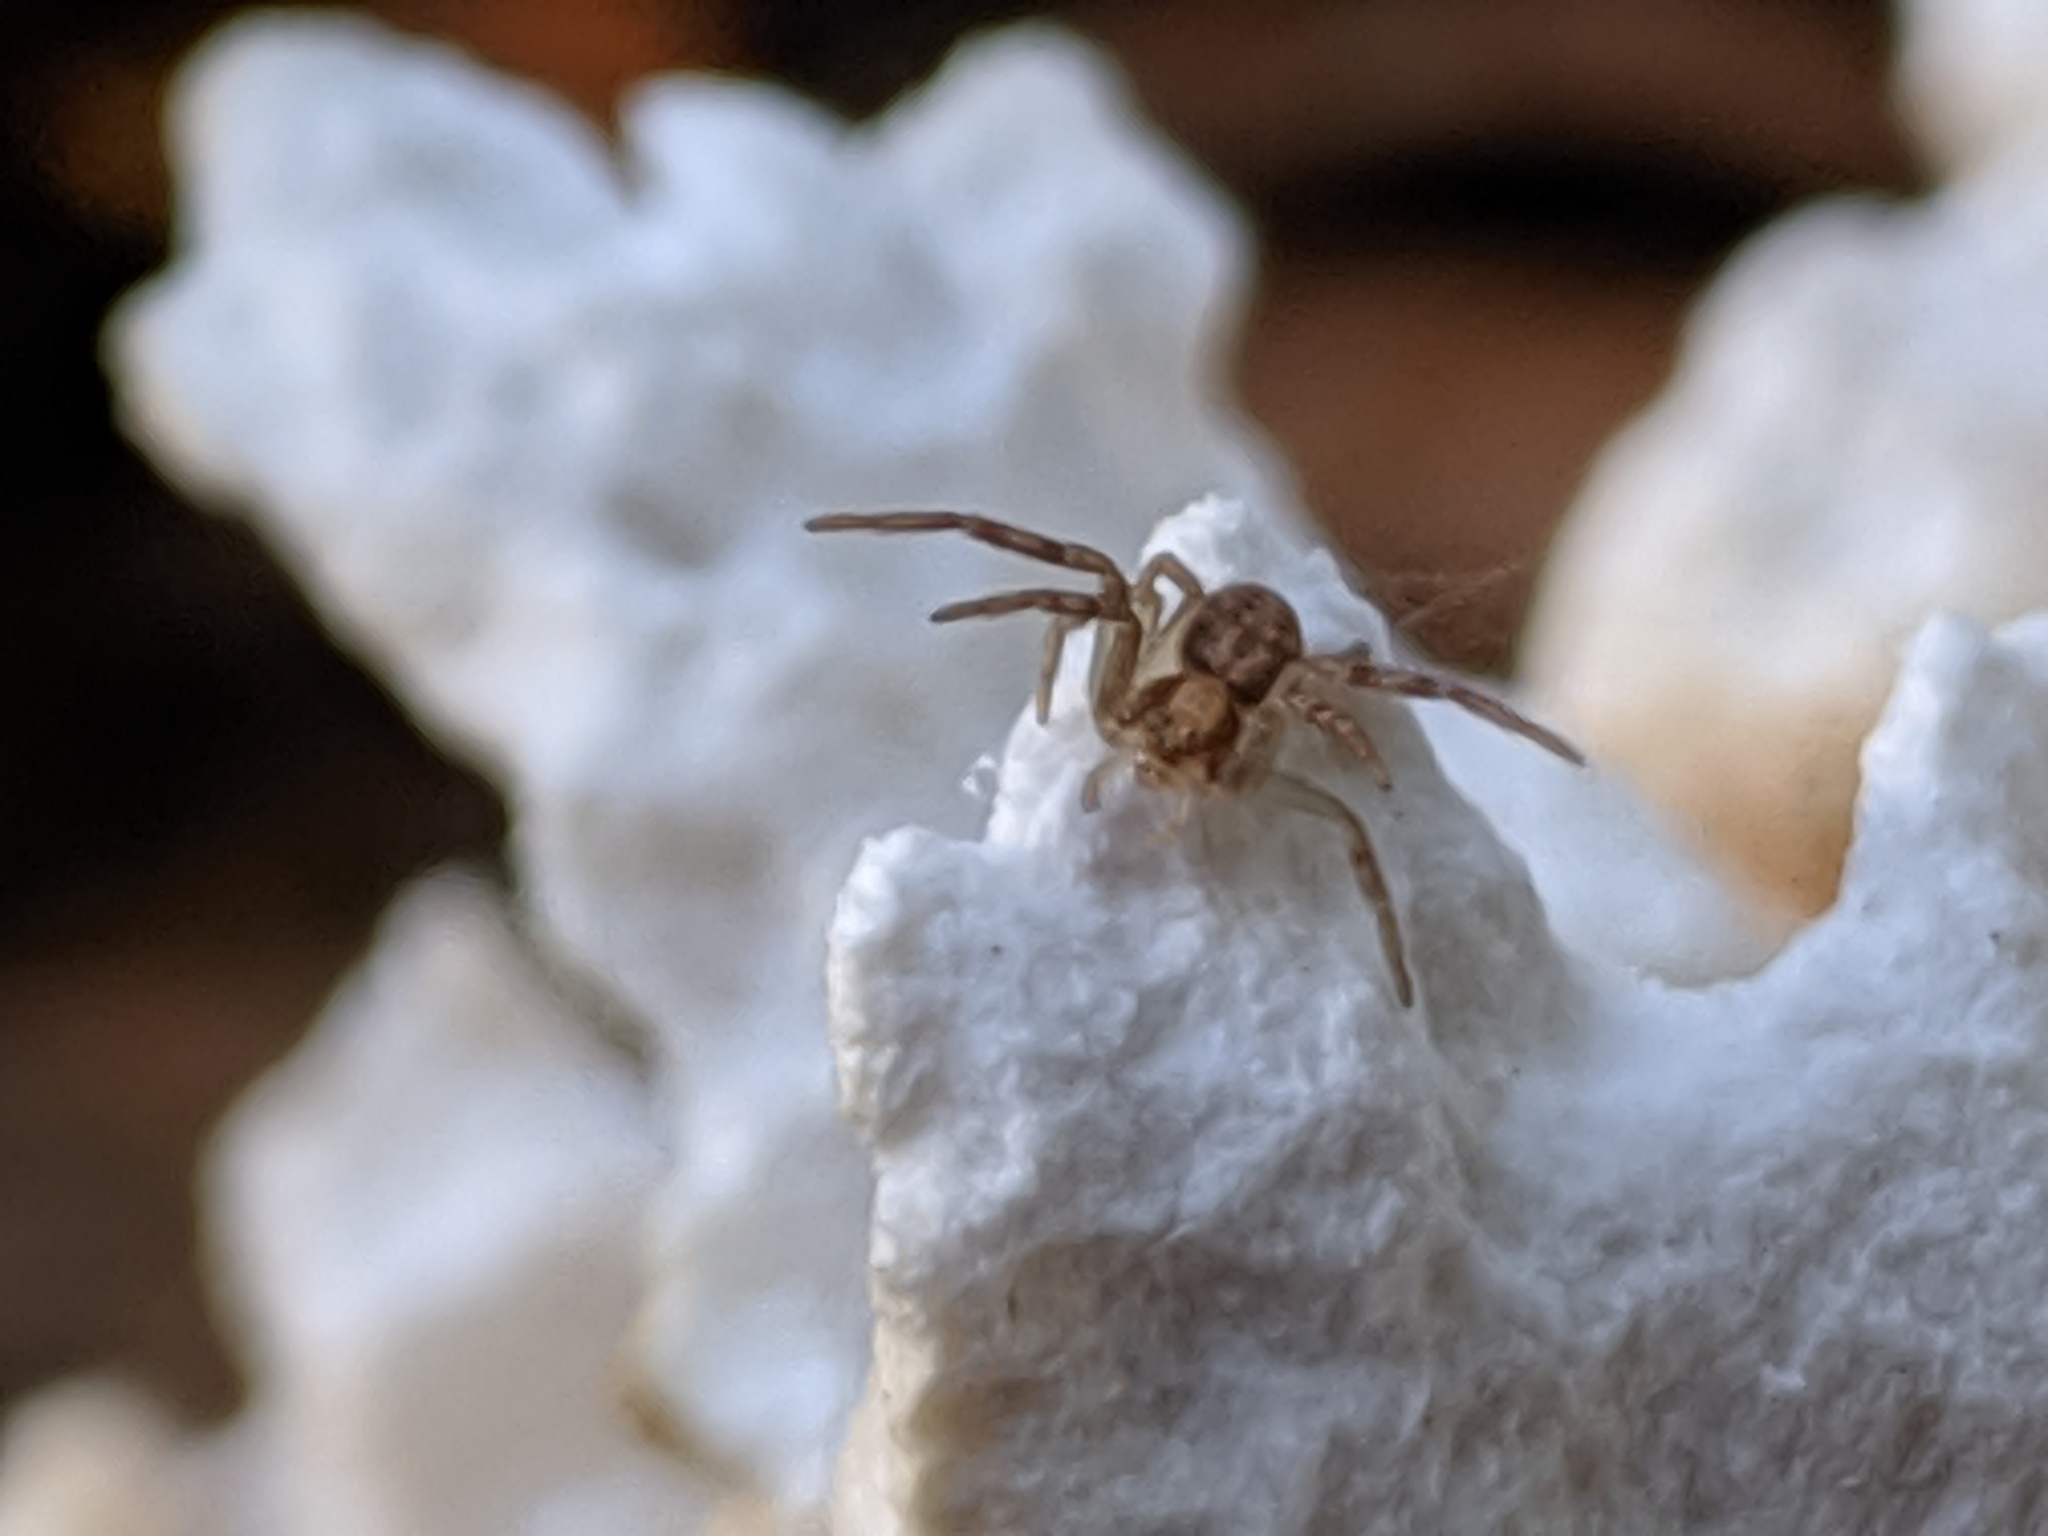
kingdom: Animalia
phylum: Arthropoda
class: Arachnida
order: Araneae
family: Philodromidae
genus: Philodromus
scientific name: Philodromus
